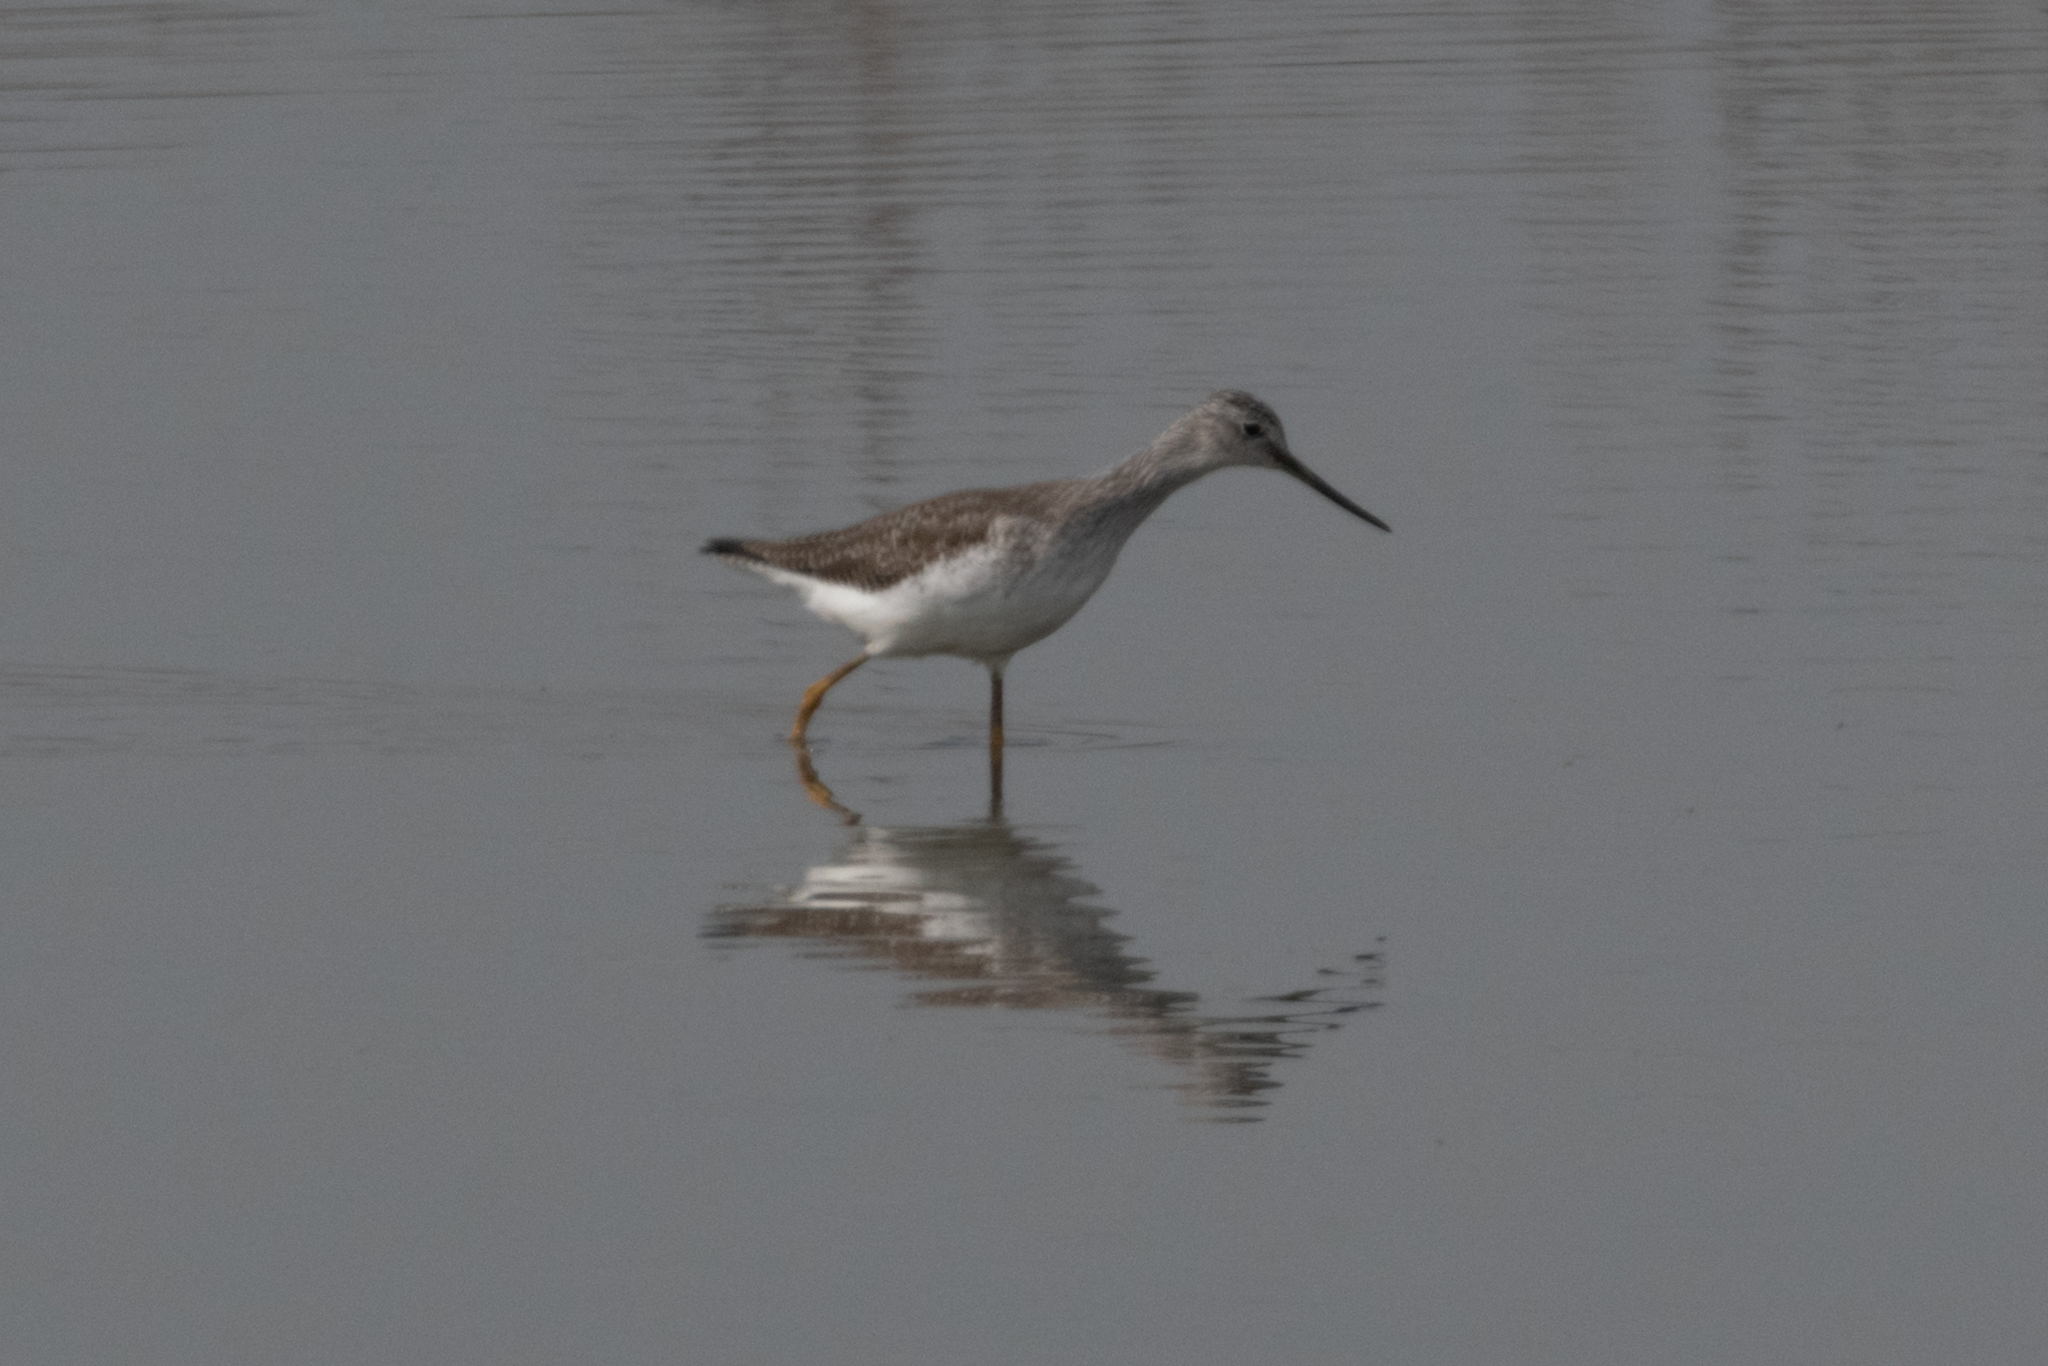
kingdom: Animalia
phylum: Chordata
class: Aves
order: Charadriiformes
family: Scolopacidae
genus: Tringa
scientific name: Tringa melanoleuca
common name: Greater yellowlegs
